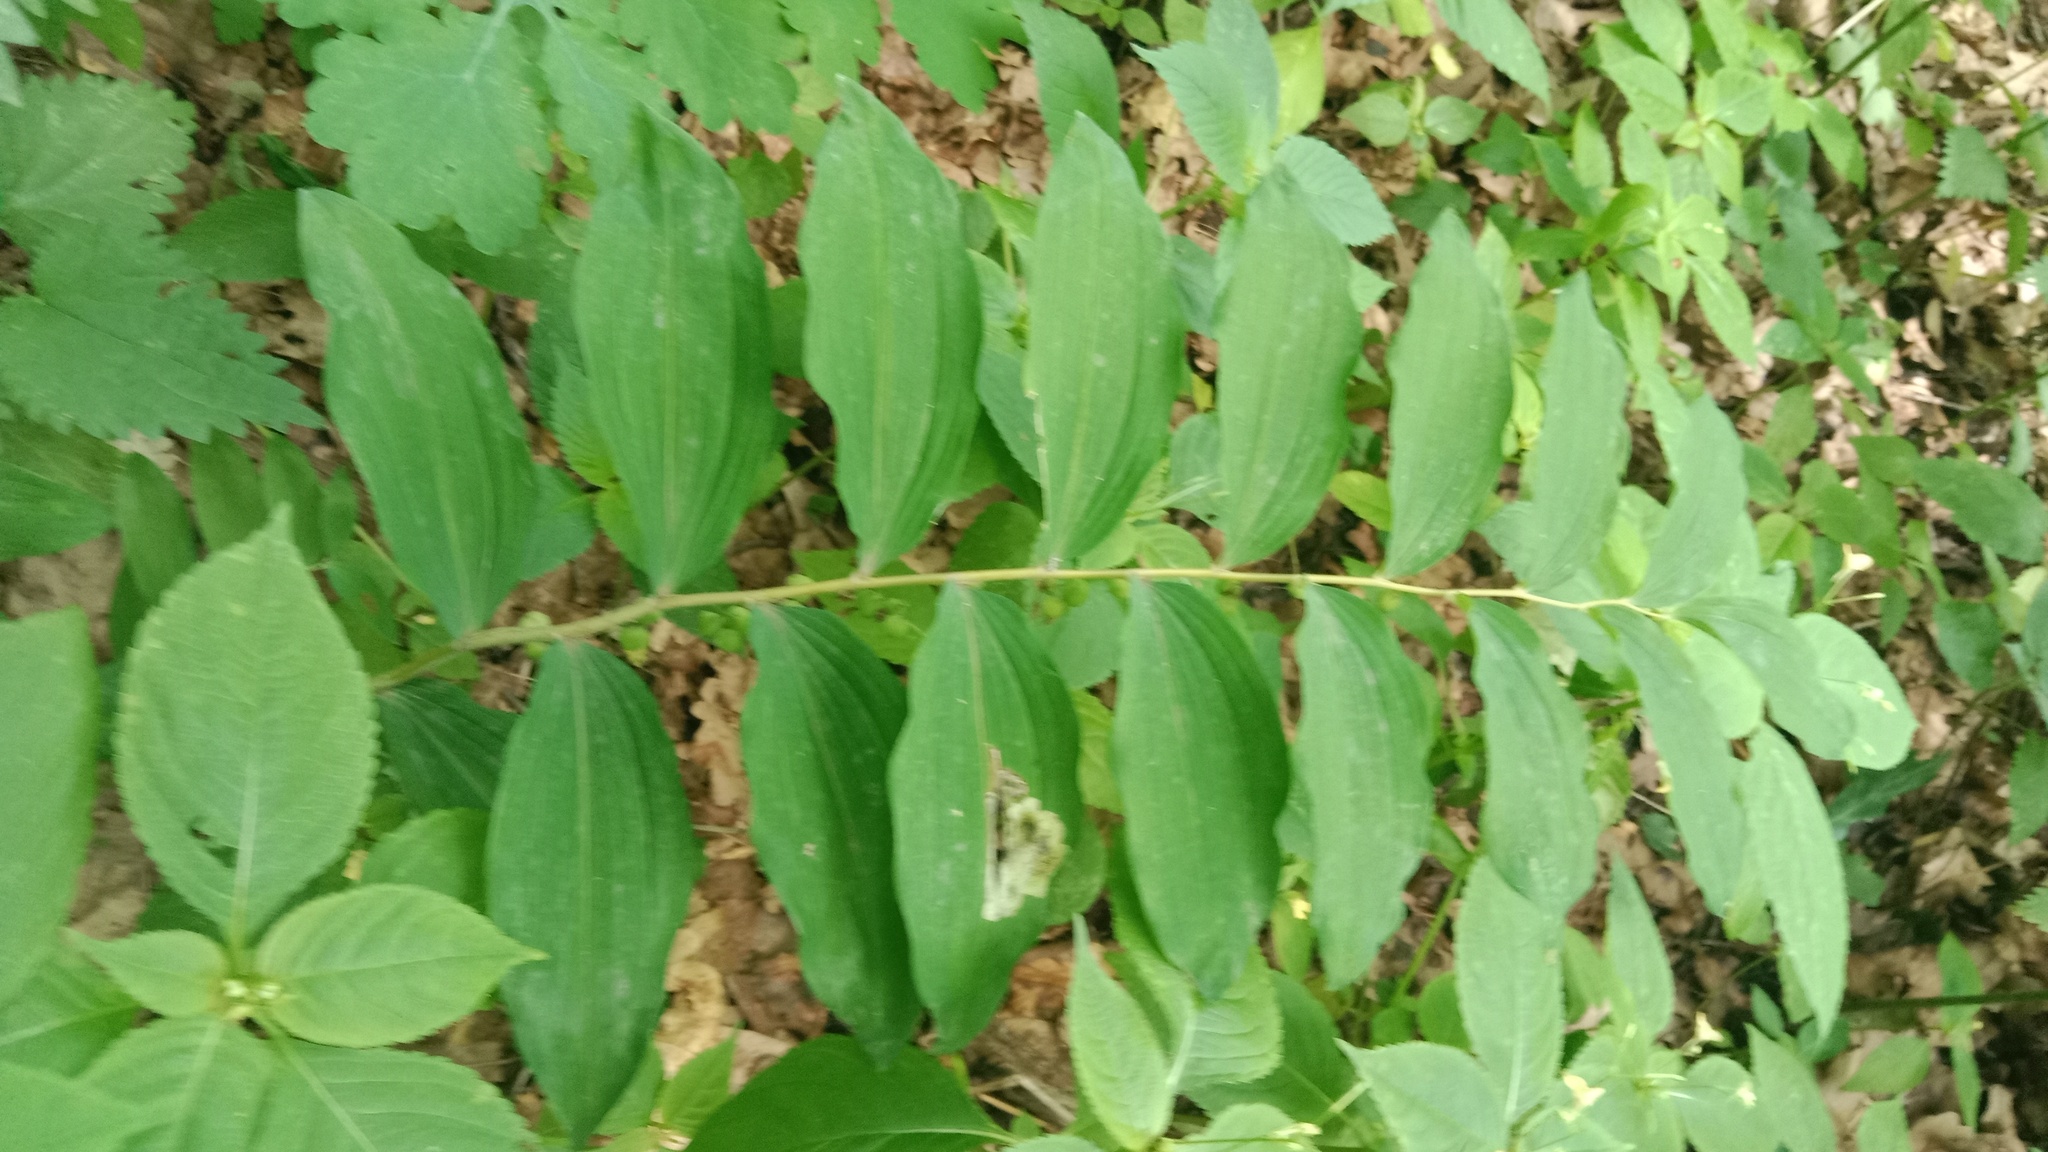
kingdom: Plantae
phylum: Tracheophyta
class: Liliopsida
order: Asparagales
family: Asparagaceae
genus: Polygonatum
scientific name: Polygonatum multiflorum
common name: Solomon's-seal
